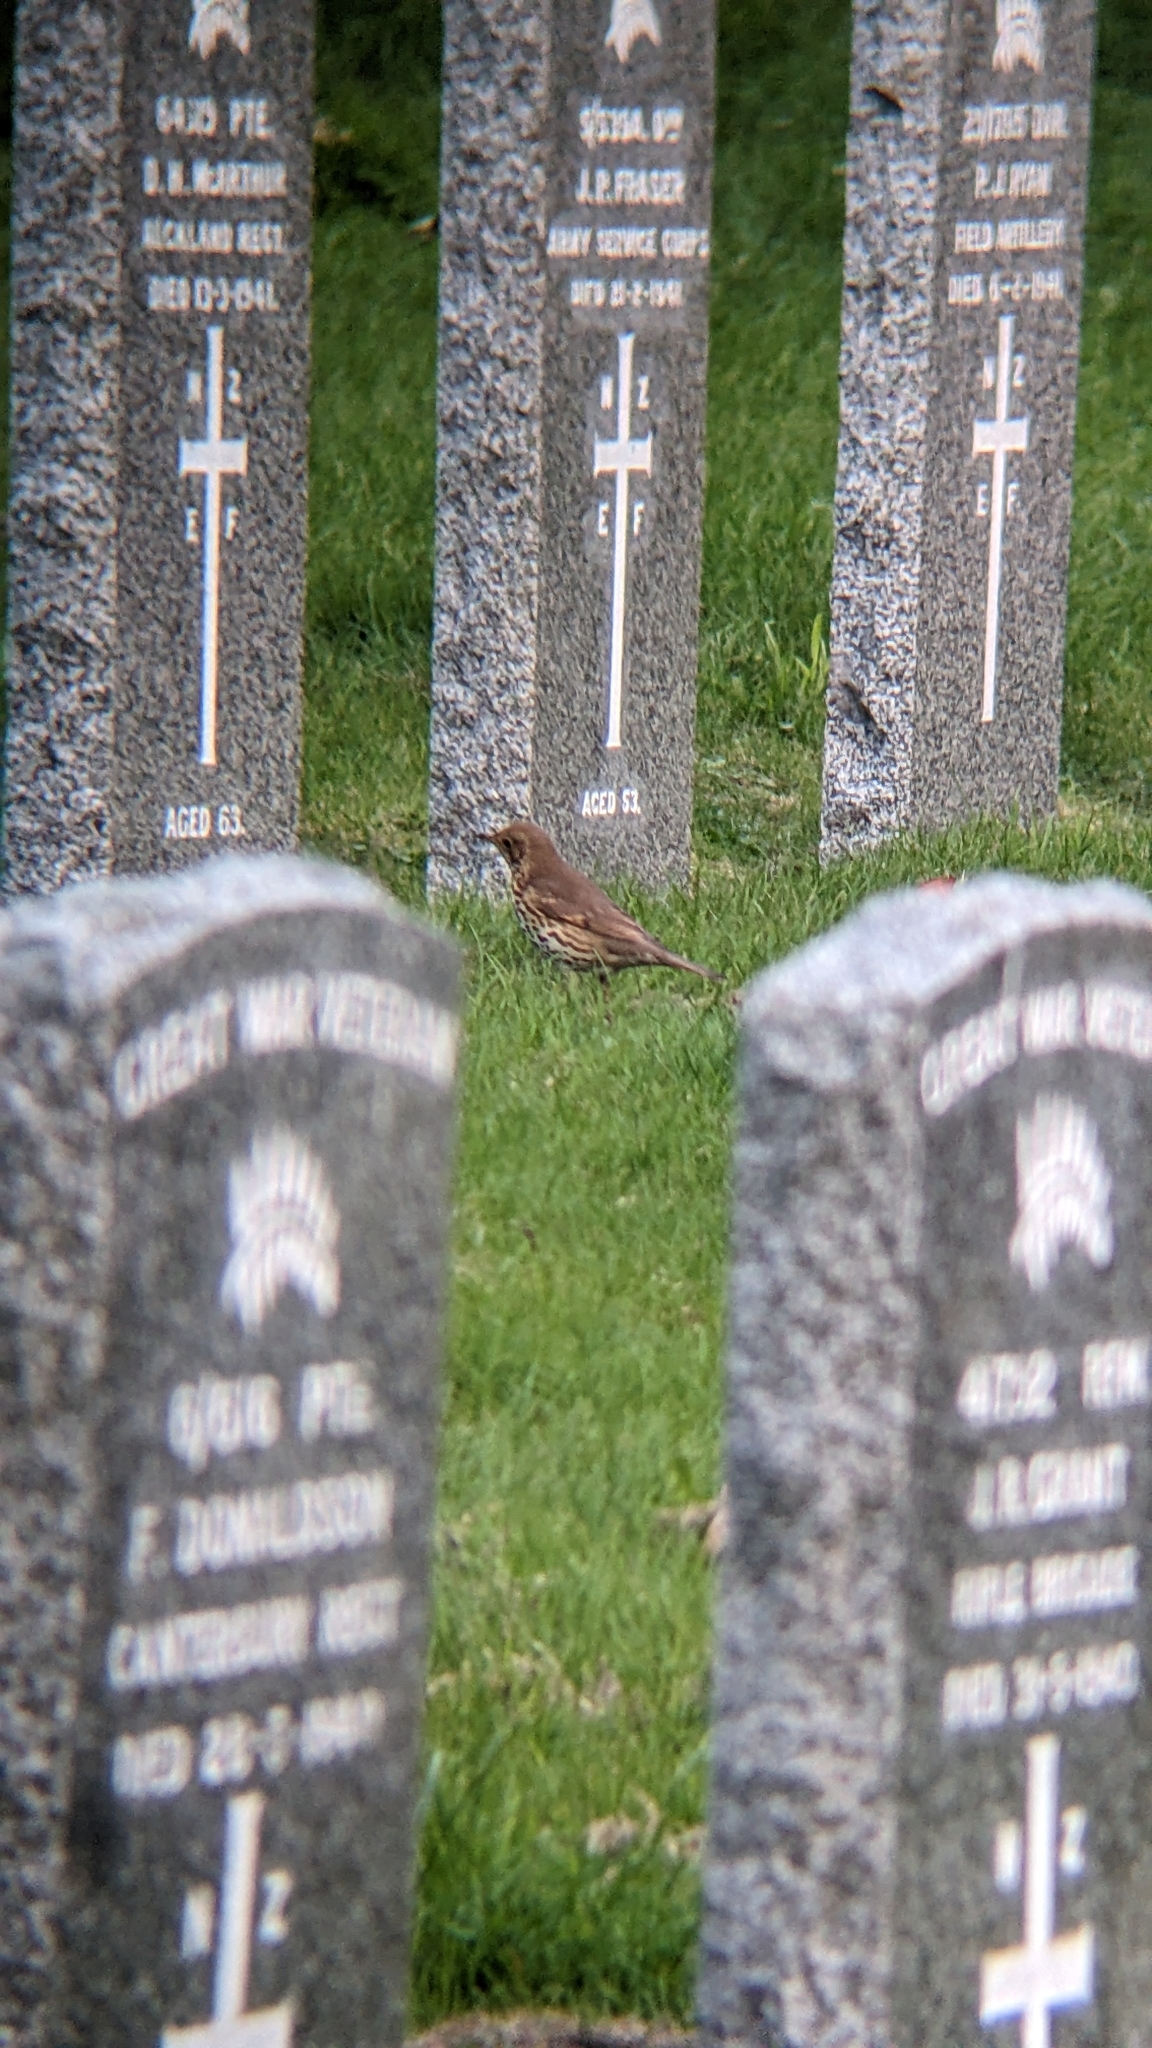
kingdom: Animalia
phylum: Chordata
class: Aves
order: Passeriformes
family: Turdidae
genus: Turdus
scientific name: Turdus philomelos
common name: Song thrush
